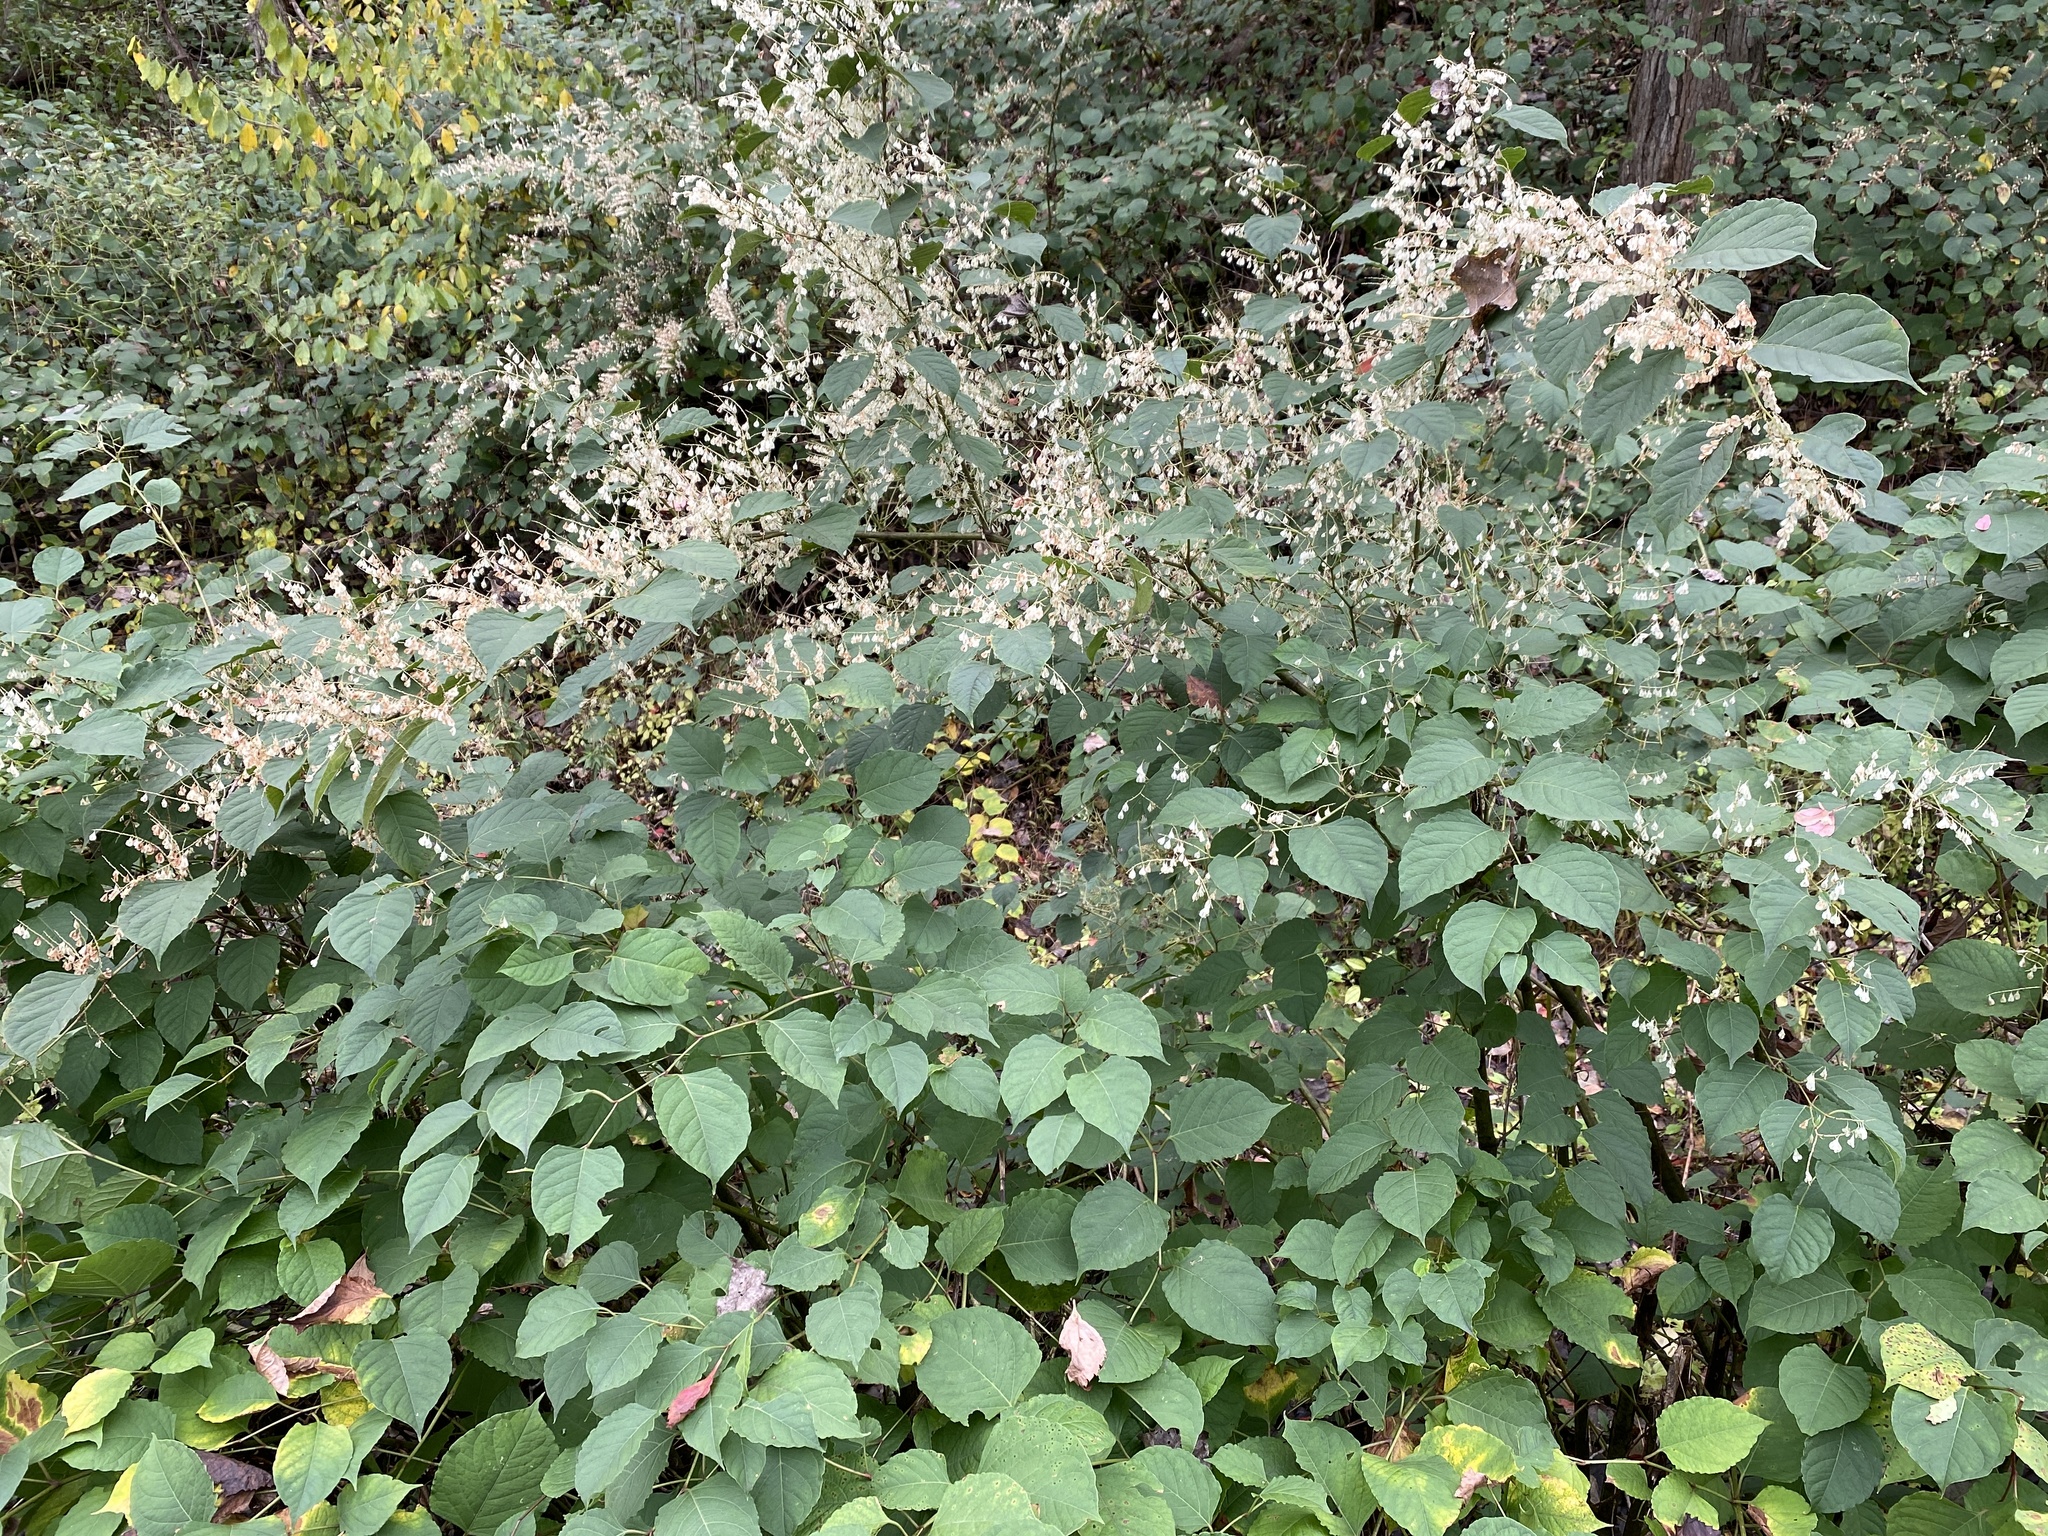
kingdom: Plantae
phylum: Tracheophyta
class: Magnoliopsida
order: Caryophyllales
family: Polygonaceae
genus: Reynoutria
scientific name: Reynoutria japonica
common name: Japanese knotweed
